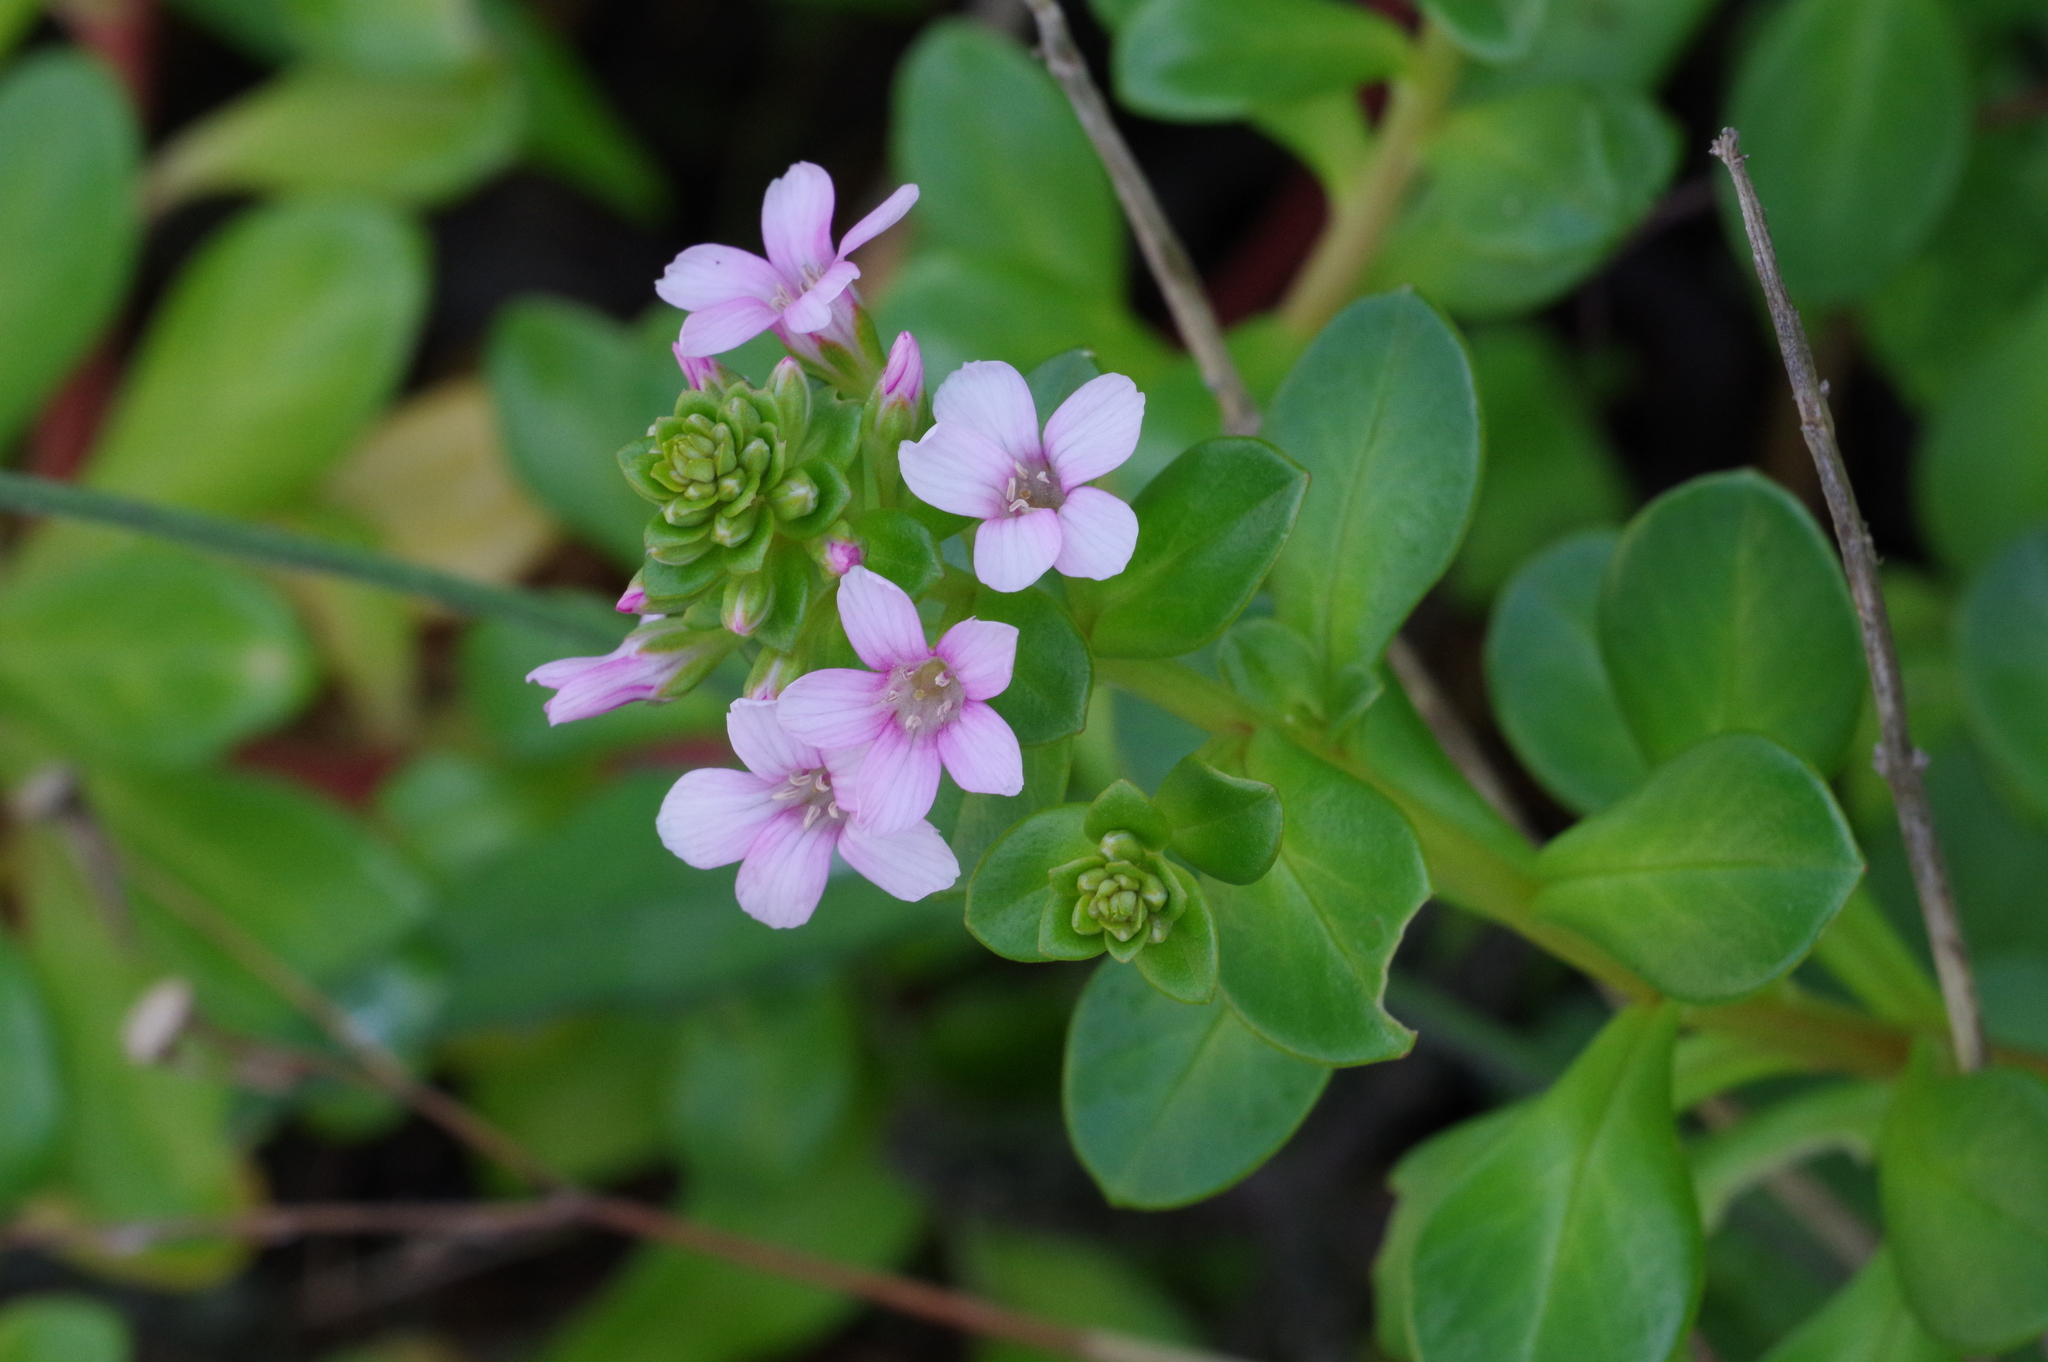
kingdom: Plantae
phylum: Tracheophyta
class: Magnoliopsida
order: Ericales
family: Primulaceae
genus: Lysimachia
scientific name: Lysimachia mauritiana
